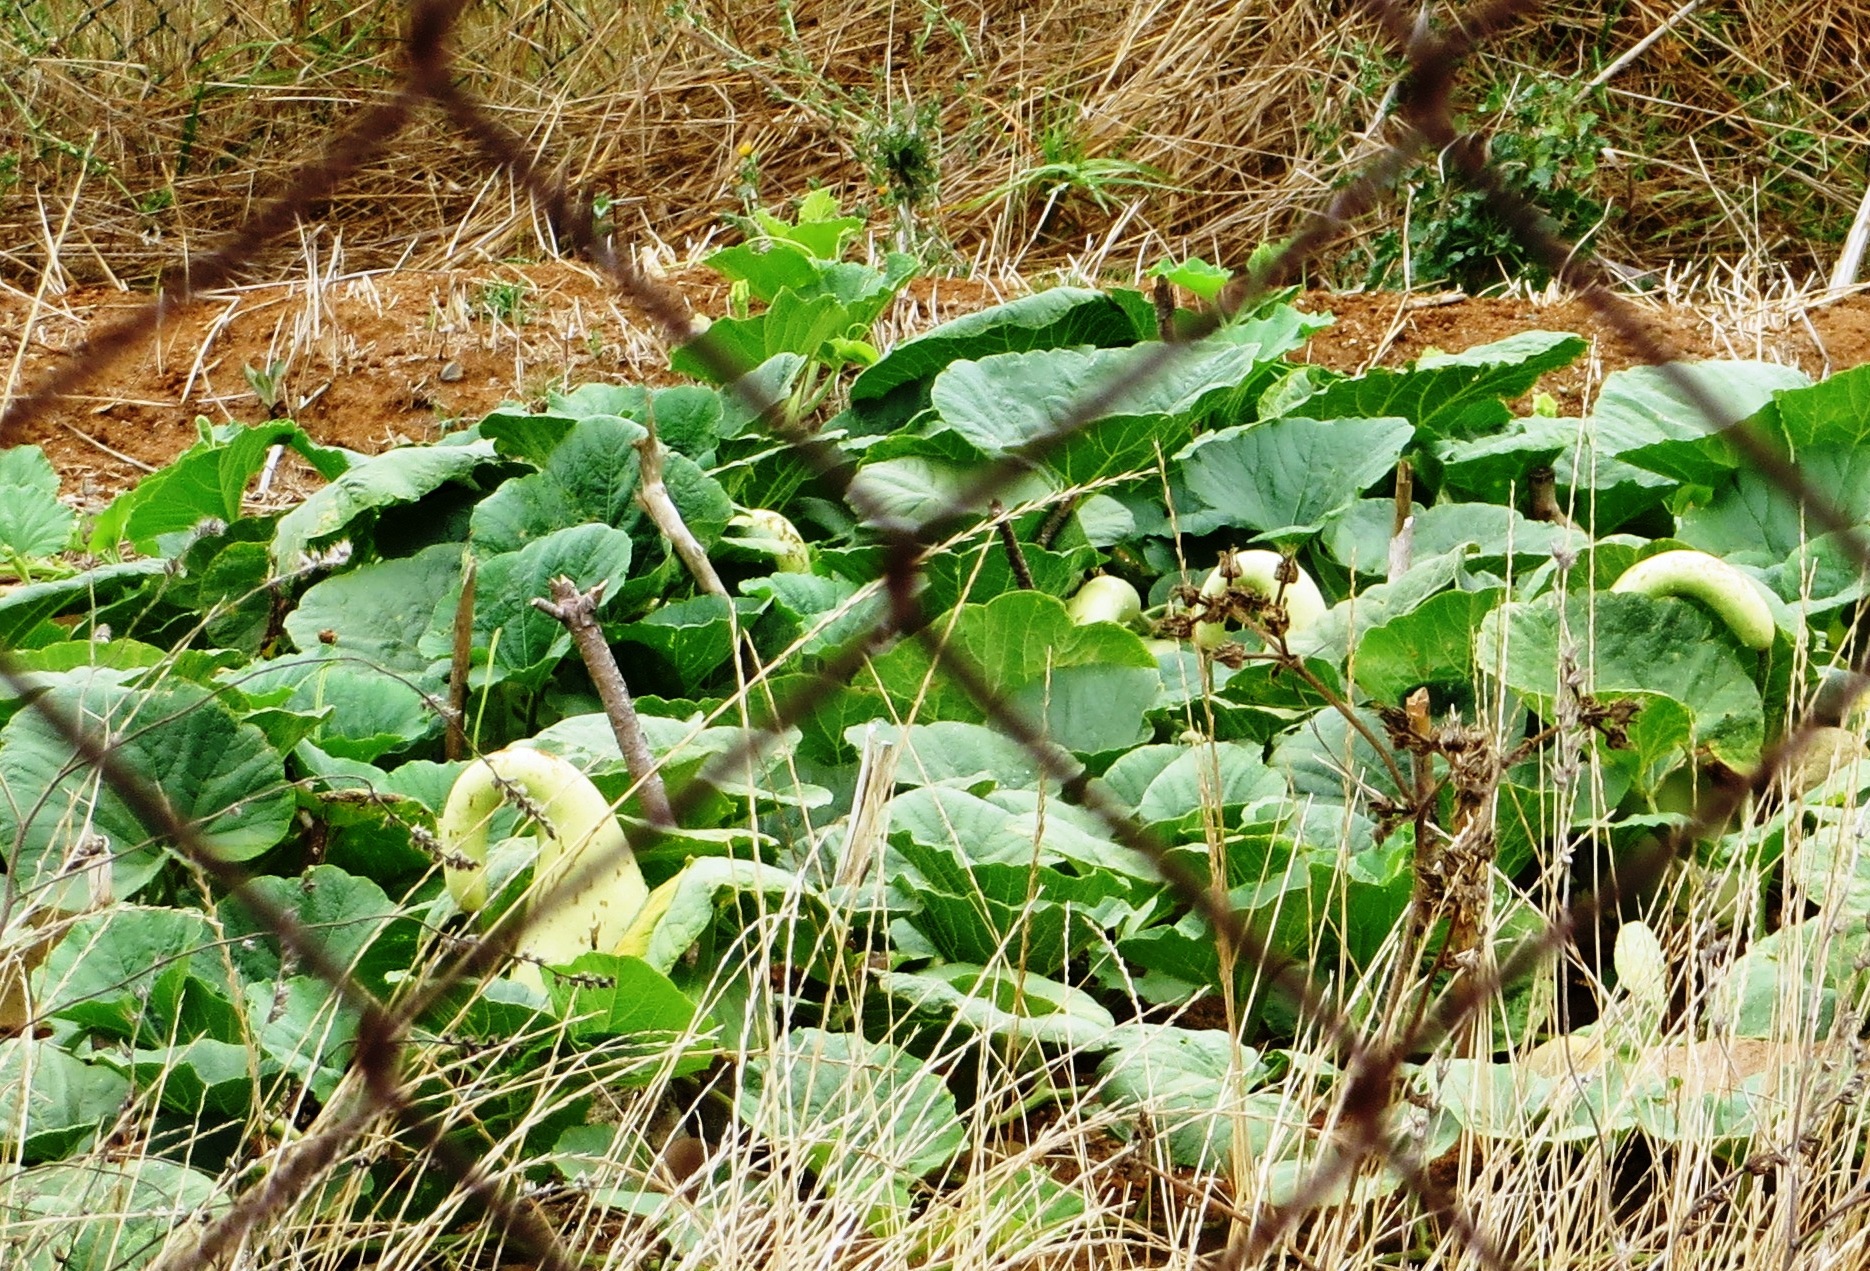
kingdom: Plantae
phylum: Tracheophyta
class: Magnoliopsida
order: Cucurbitales
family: Cucurbitaceae
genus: Lagenaria
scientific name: Lagenaria siceraria
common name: Bottle gourd
